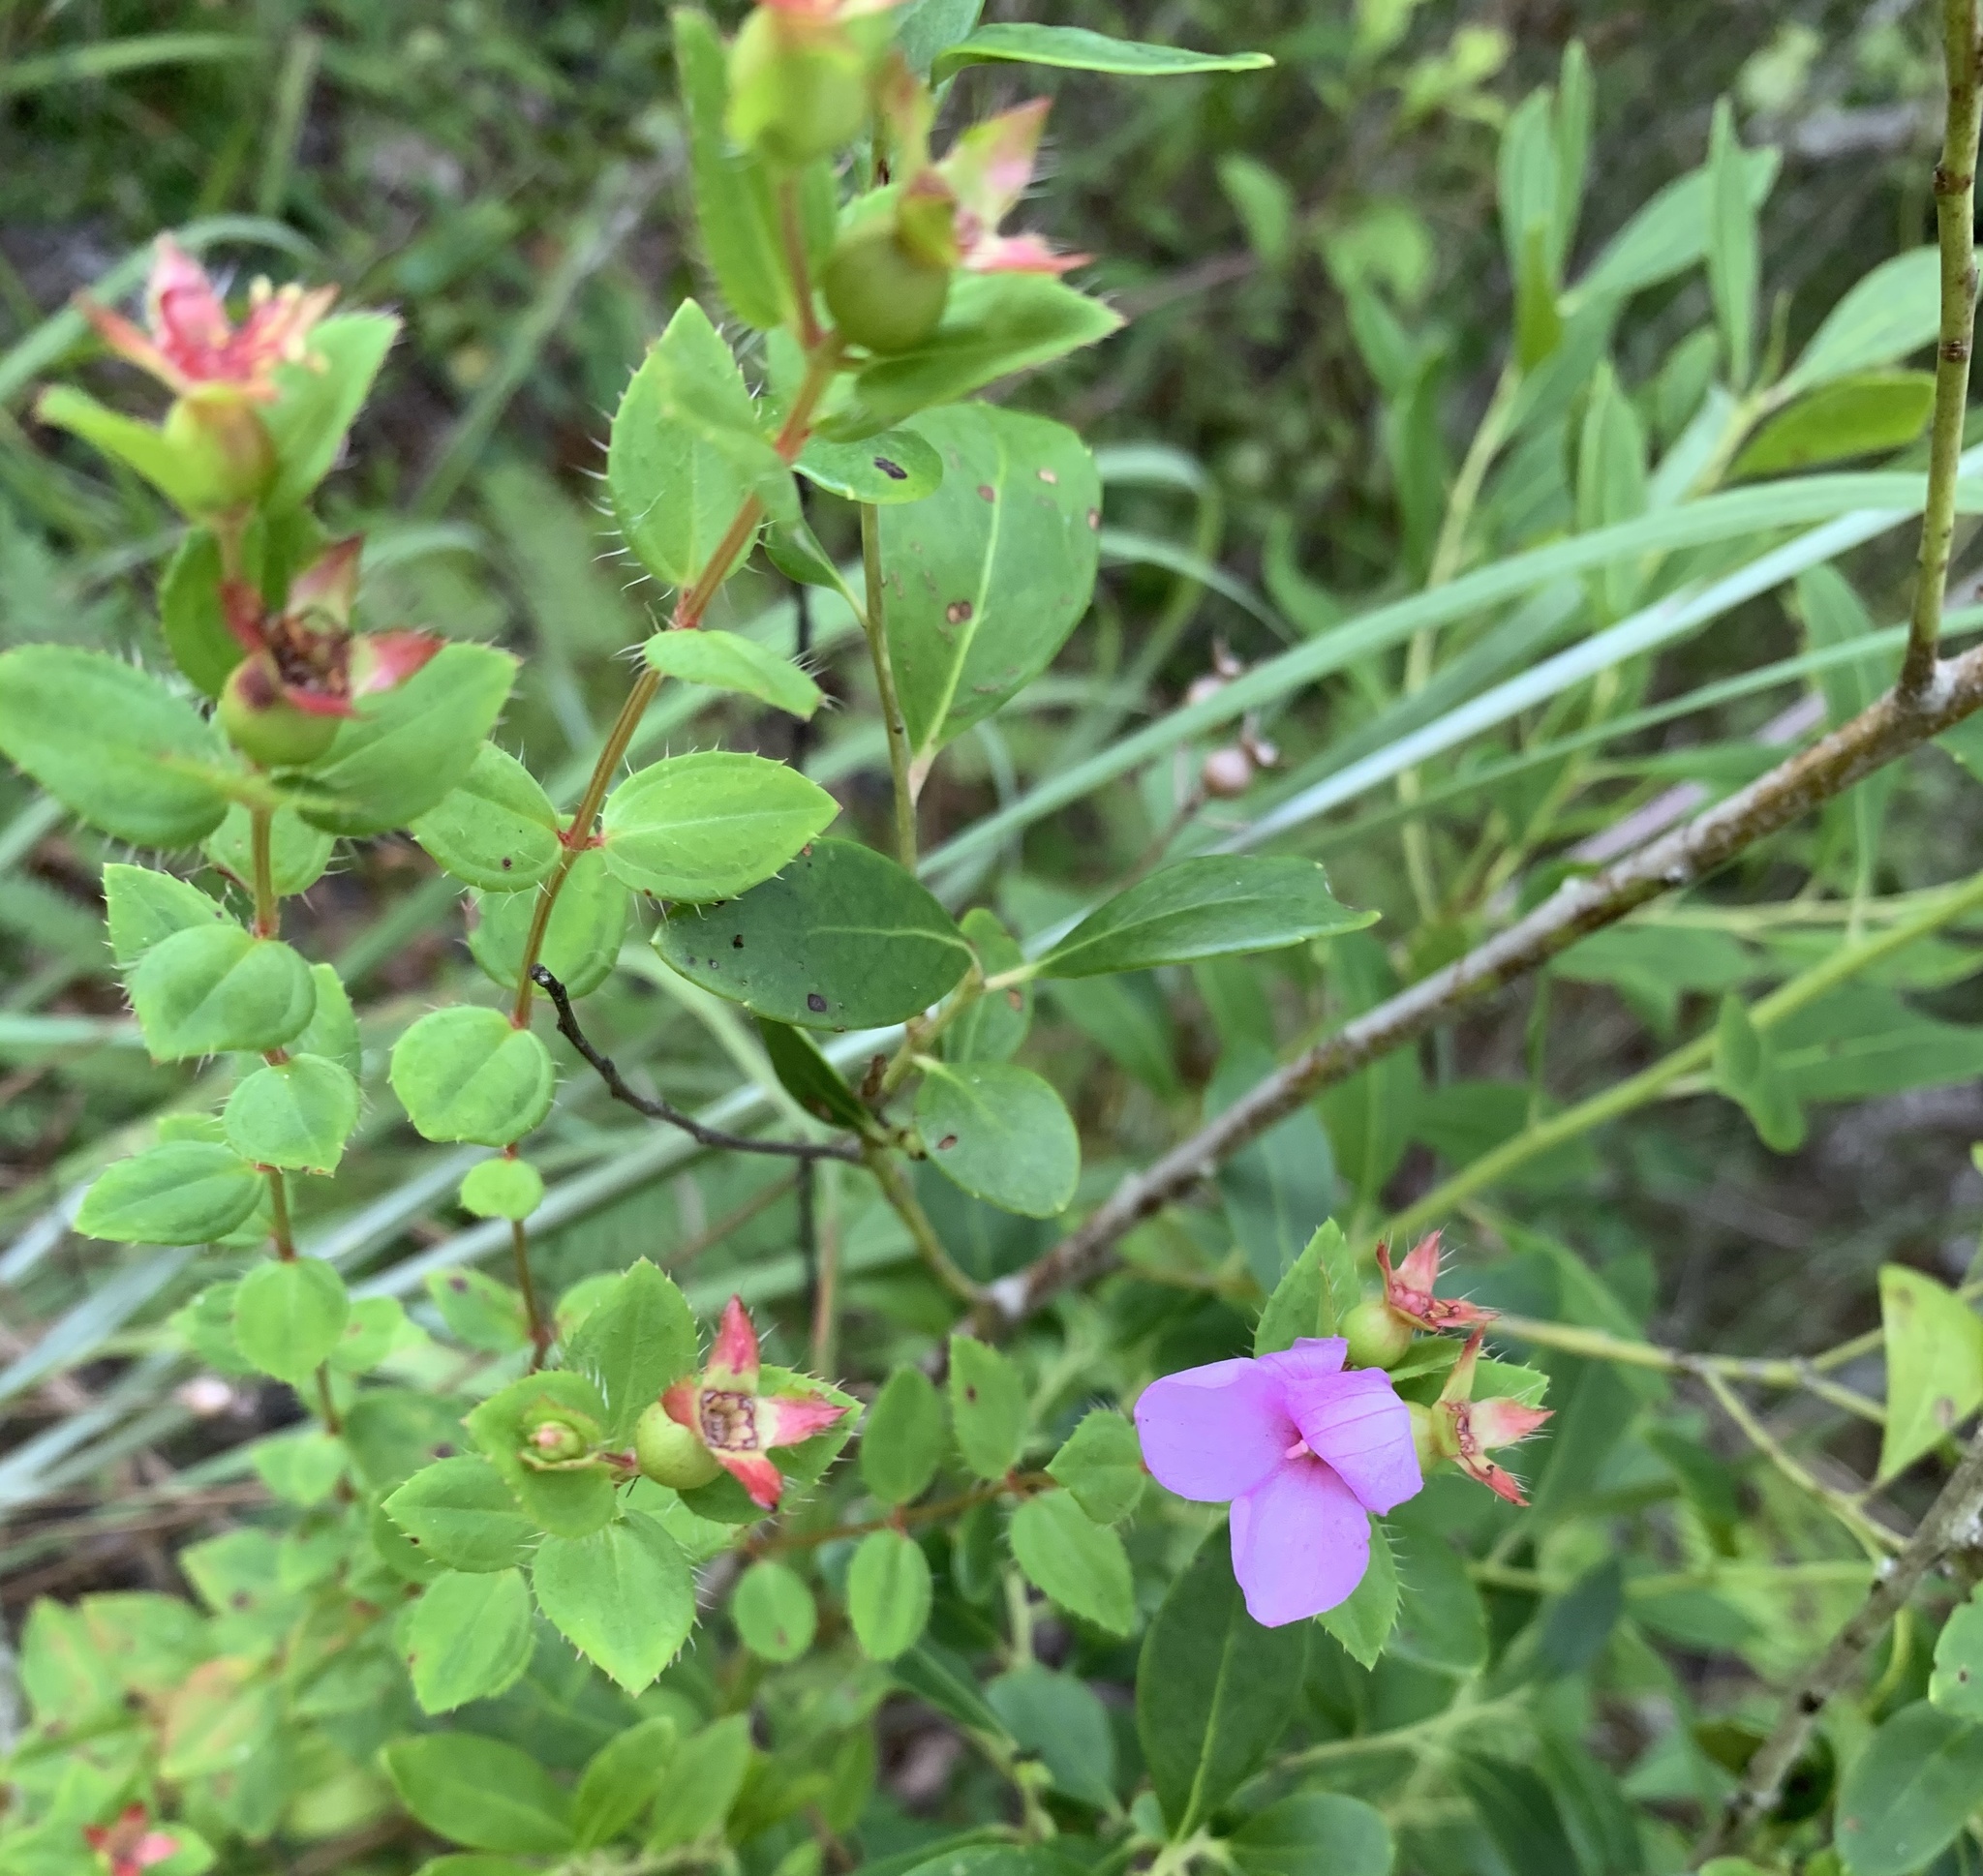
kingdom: Plantae
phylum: Tracheophyta
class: Magnoliopsida
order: Myrtales
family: Melastomataceae
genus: Rhexia
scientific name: Rhexia petiolata
